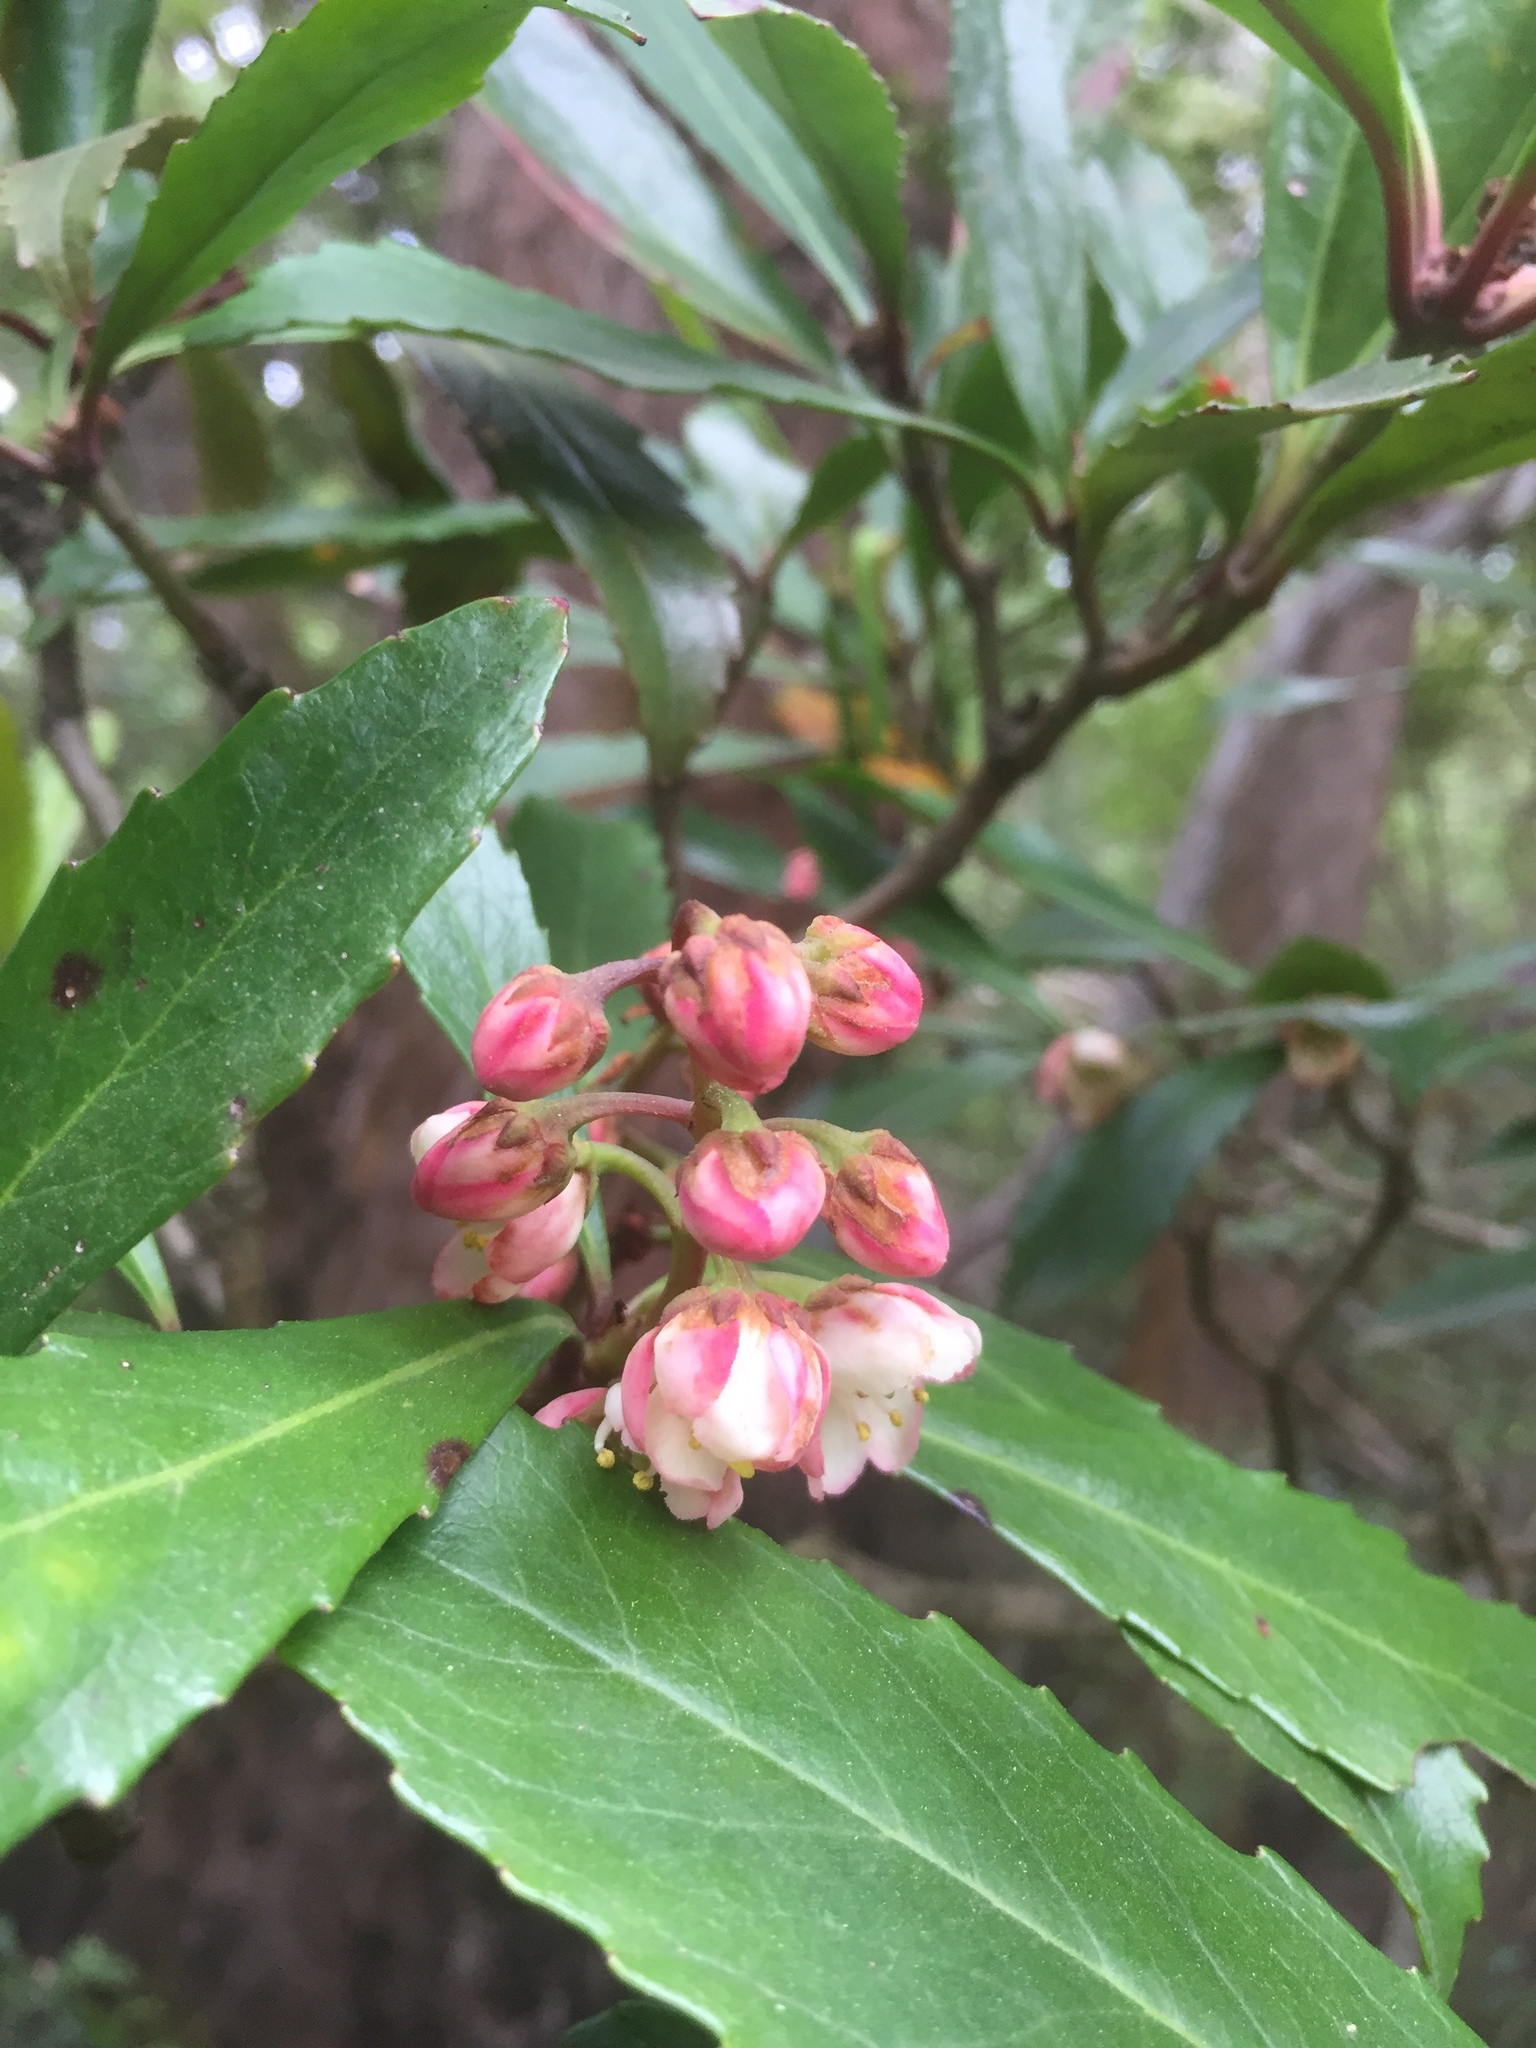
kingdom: Plantae
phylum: Tracheophyta
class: Magnoliopsida
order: Escalloniales
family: Escalloniaceae
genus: Anopterus
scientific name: Anopterus glandulosus
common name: Tasmanian-laurel
